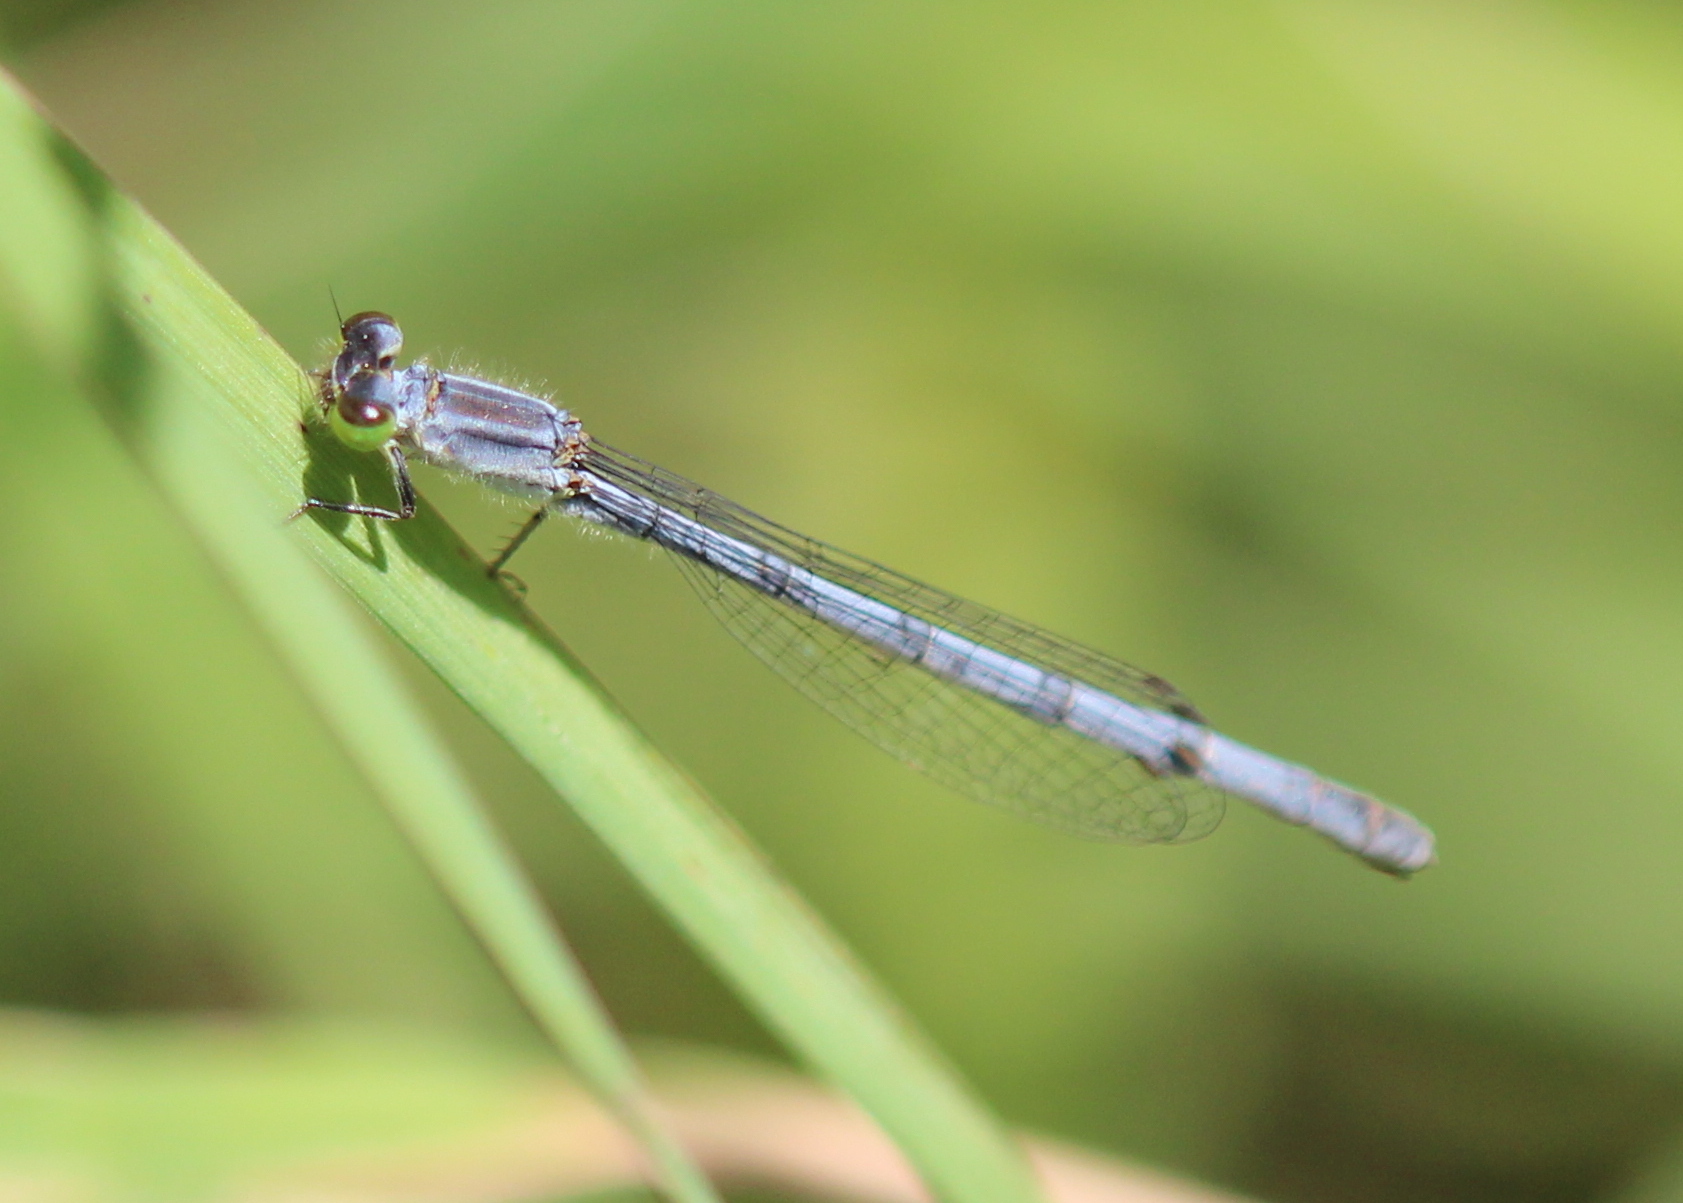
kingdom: Animalia
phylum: Arthropoda
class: Insecta
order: Odonata
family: Coenagrionidae
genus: Ischnura
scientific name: Ischnura verticalis
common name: Eastern forktail
